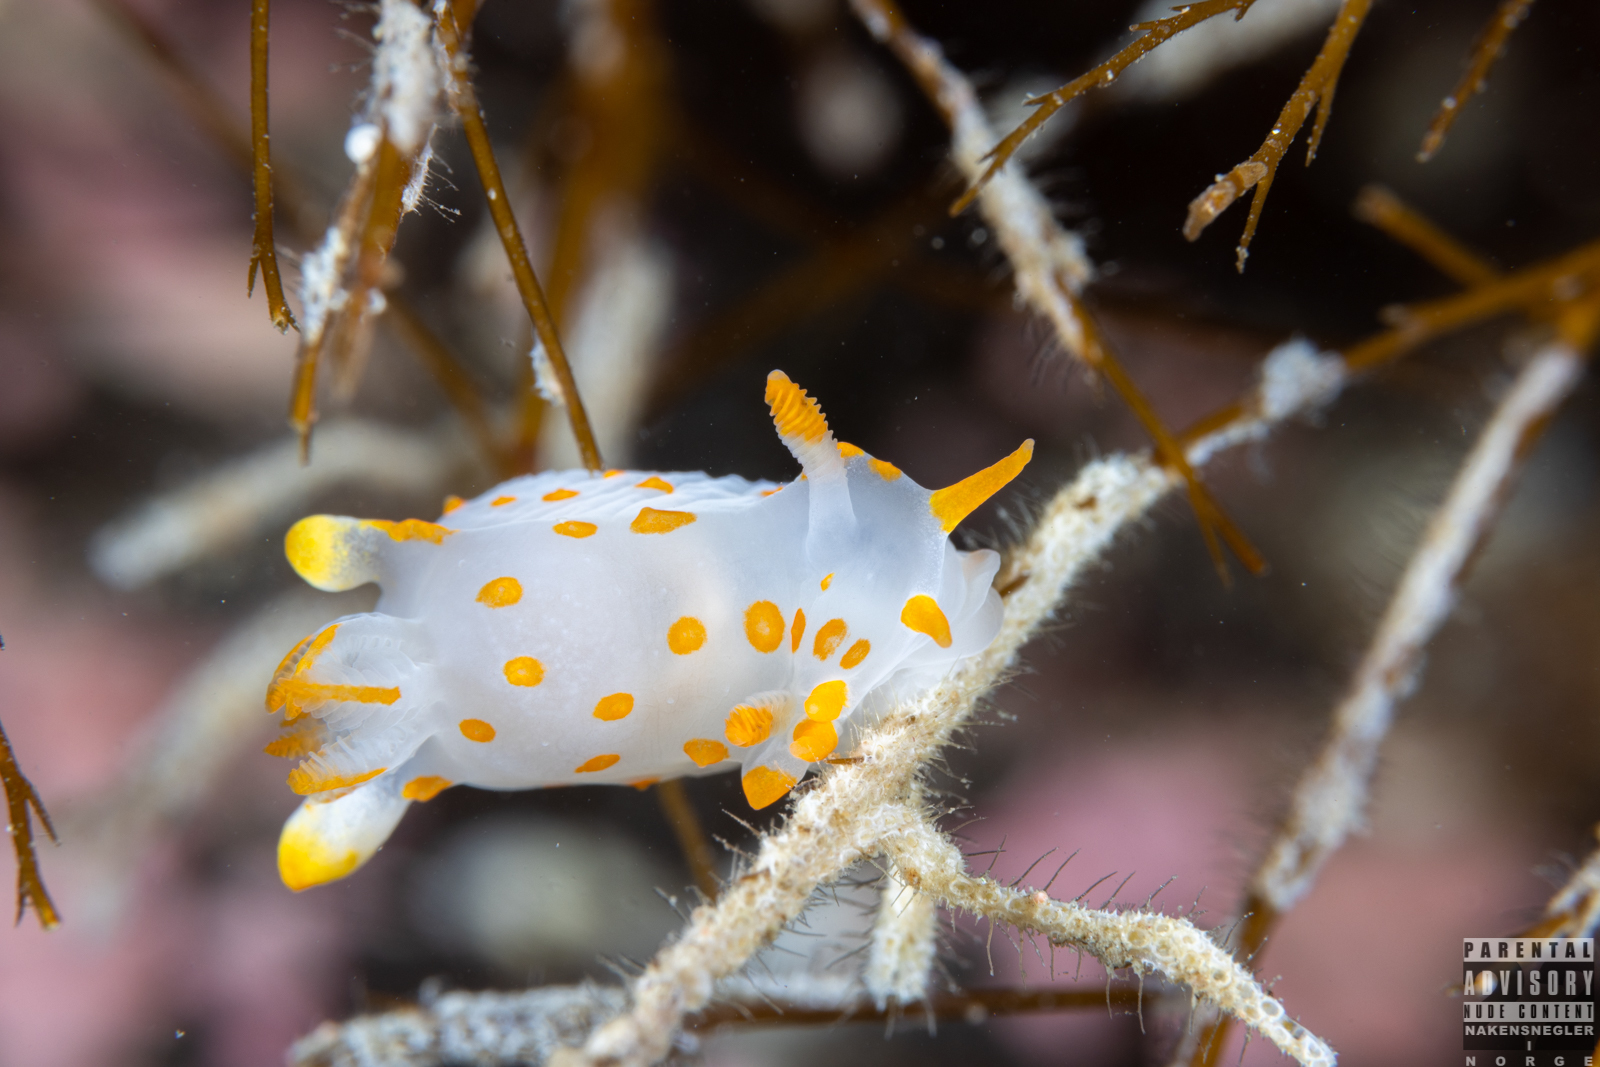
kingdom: Animalia
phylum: Mollusca
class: Gastropoda
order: Nudibranchia
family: Polyceridae
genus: Polycera
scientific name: Polycera quadrilineata
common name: Four-striped polycera
